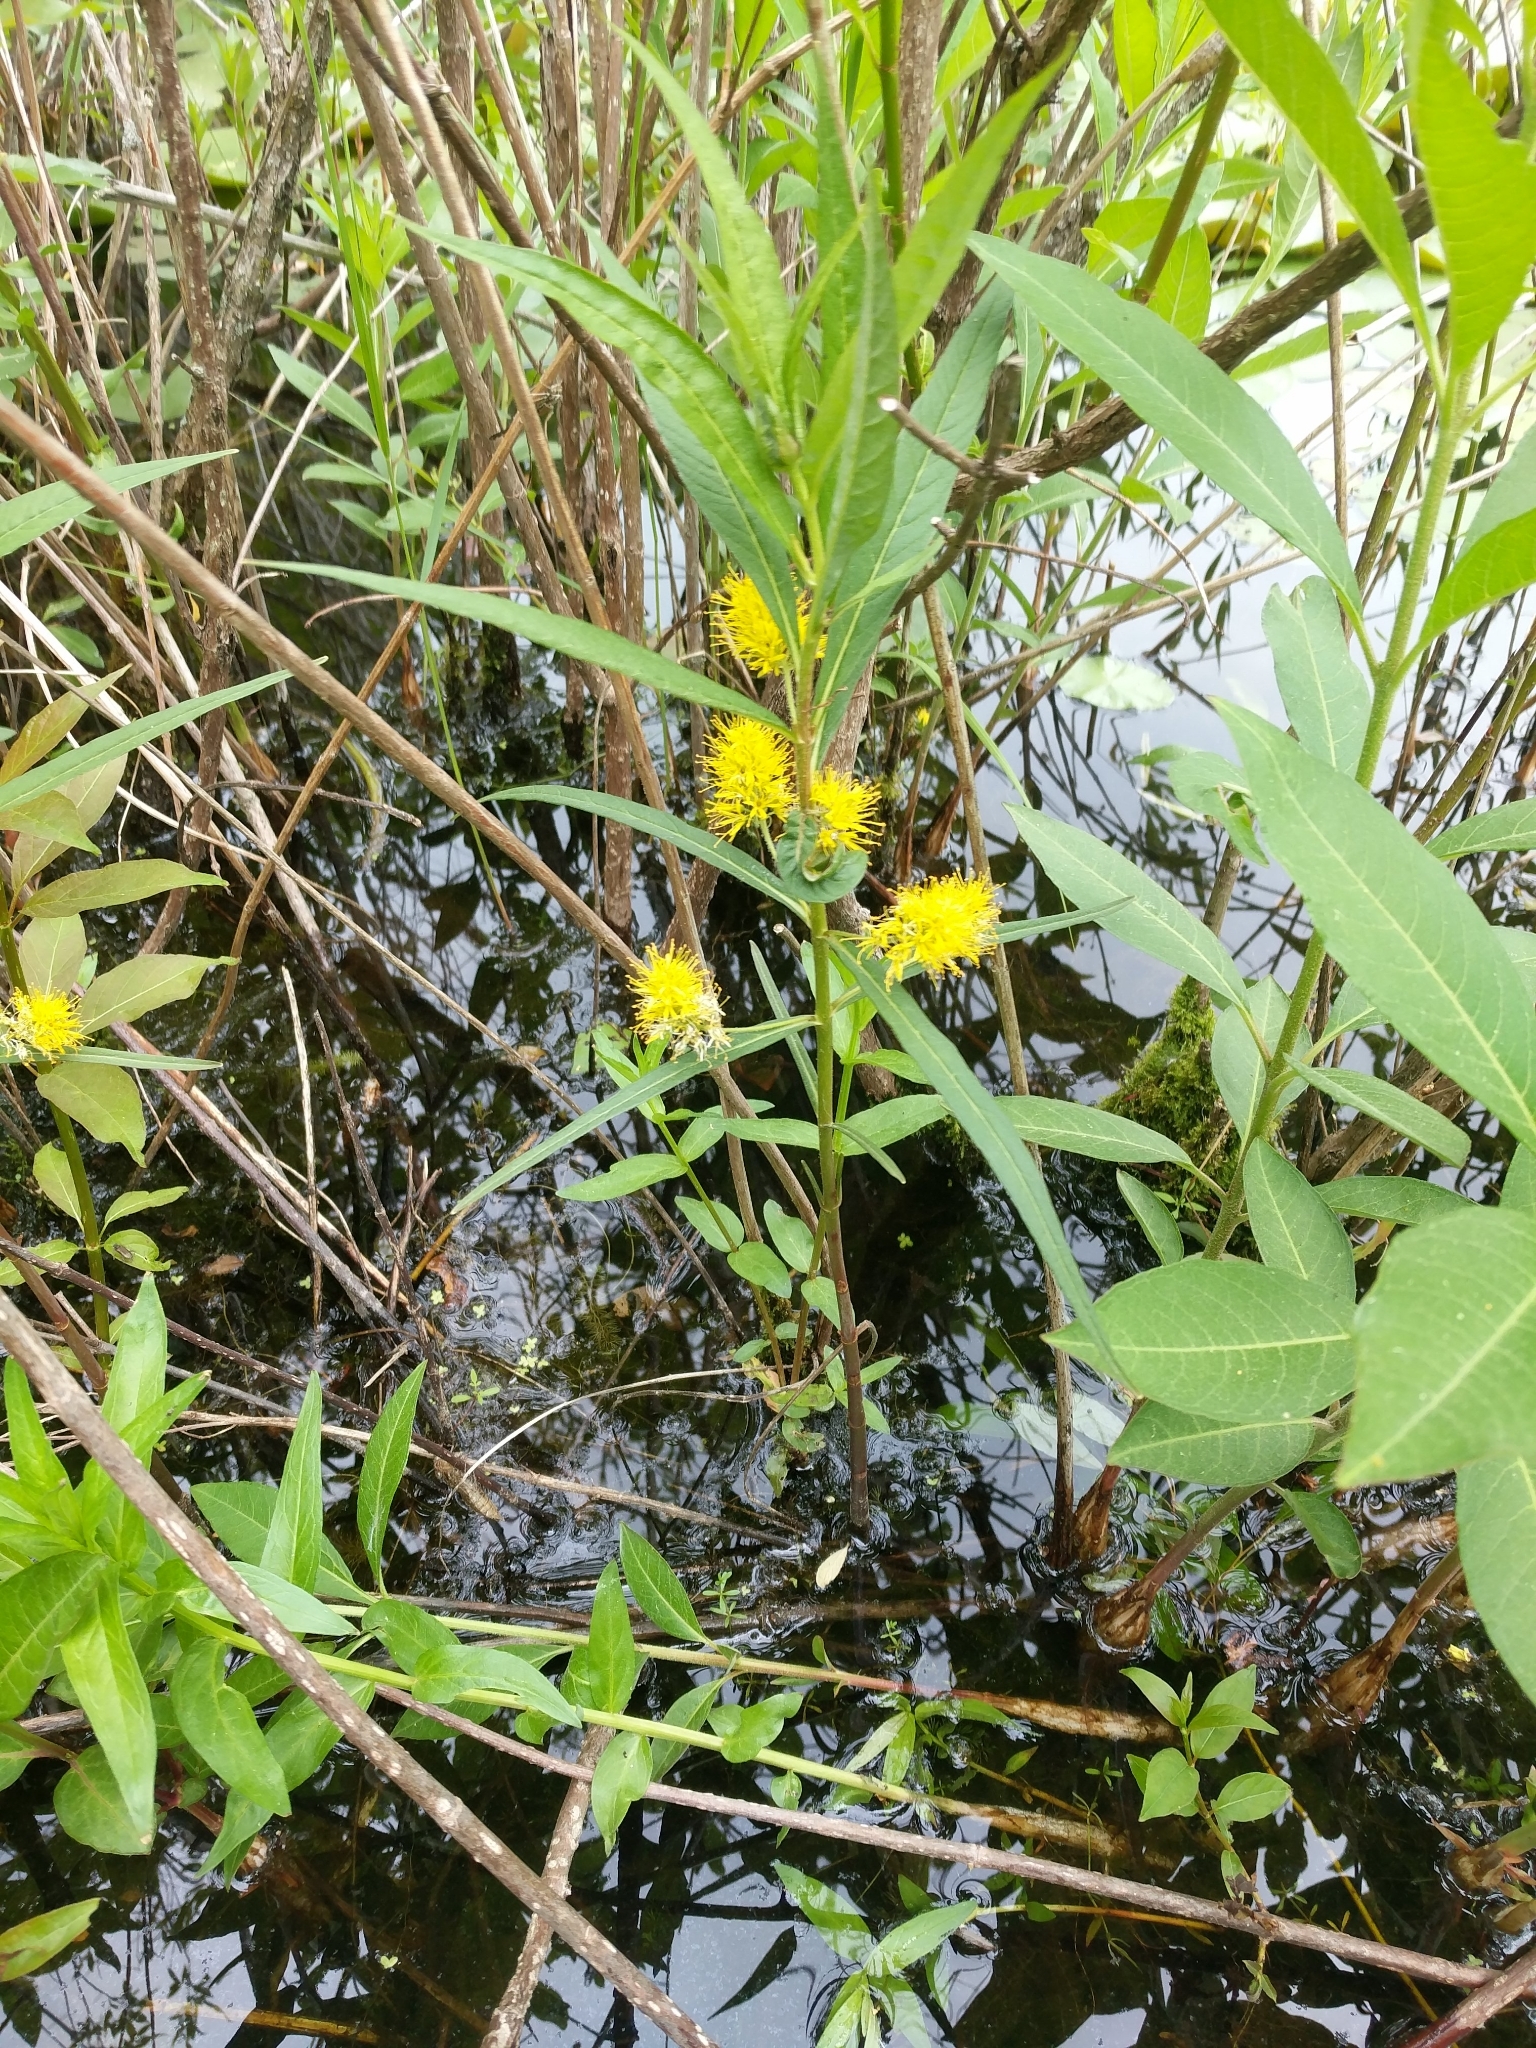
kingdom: Plantae
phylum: Tracheophyta
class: Magnoliopsida
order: Ericales
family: Primulaceae
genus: Lysimachia
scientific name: Lysimachia thyrsiflora
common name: Tufted loosestrife
